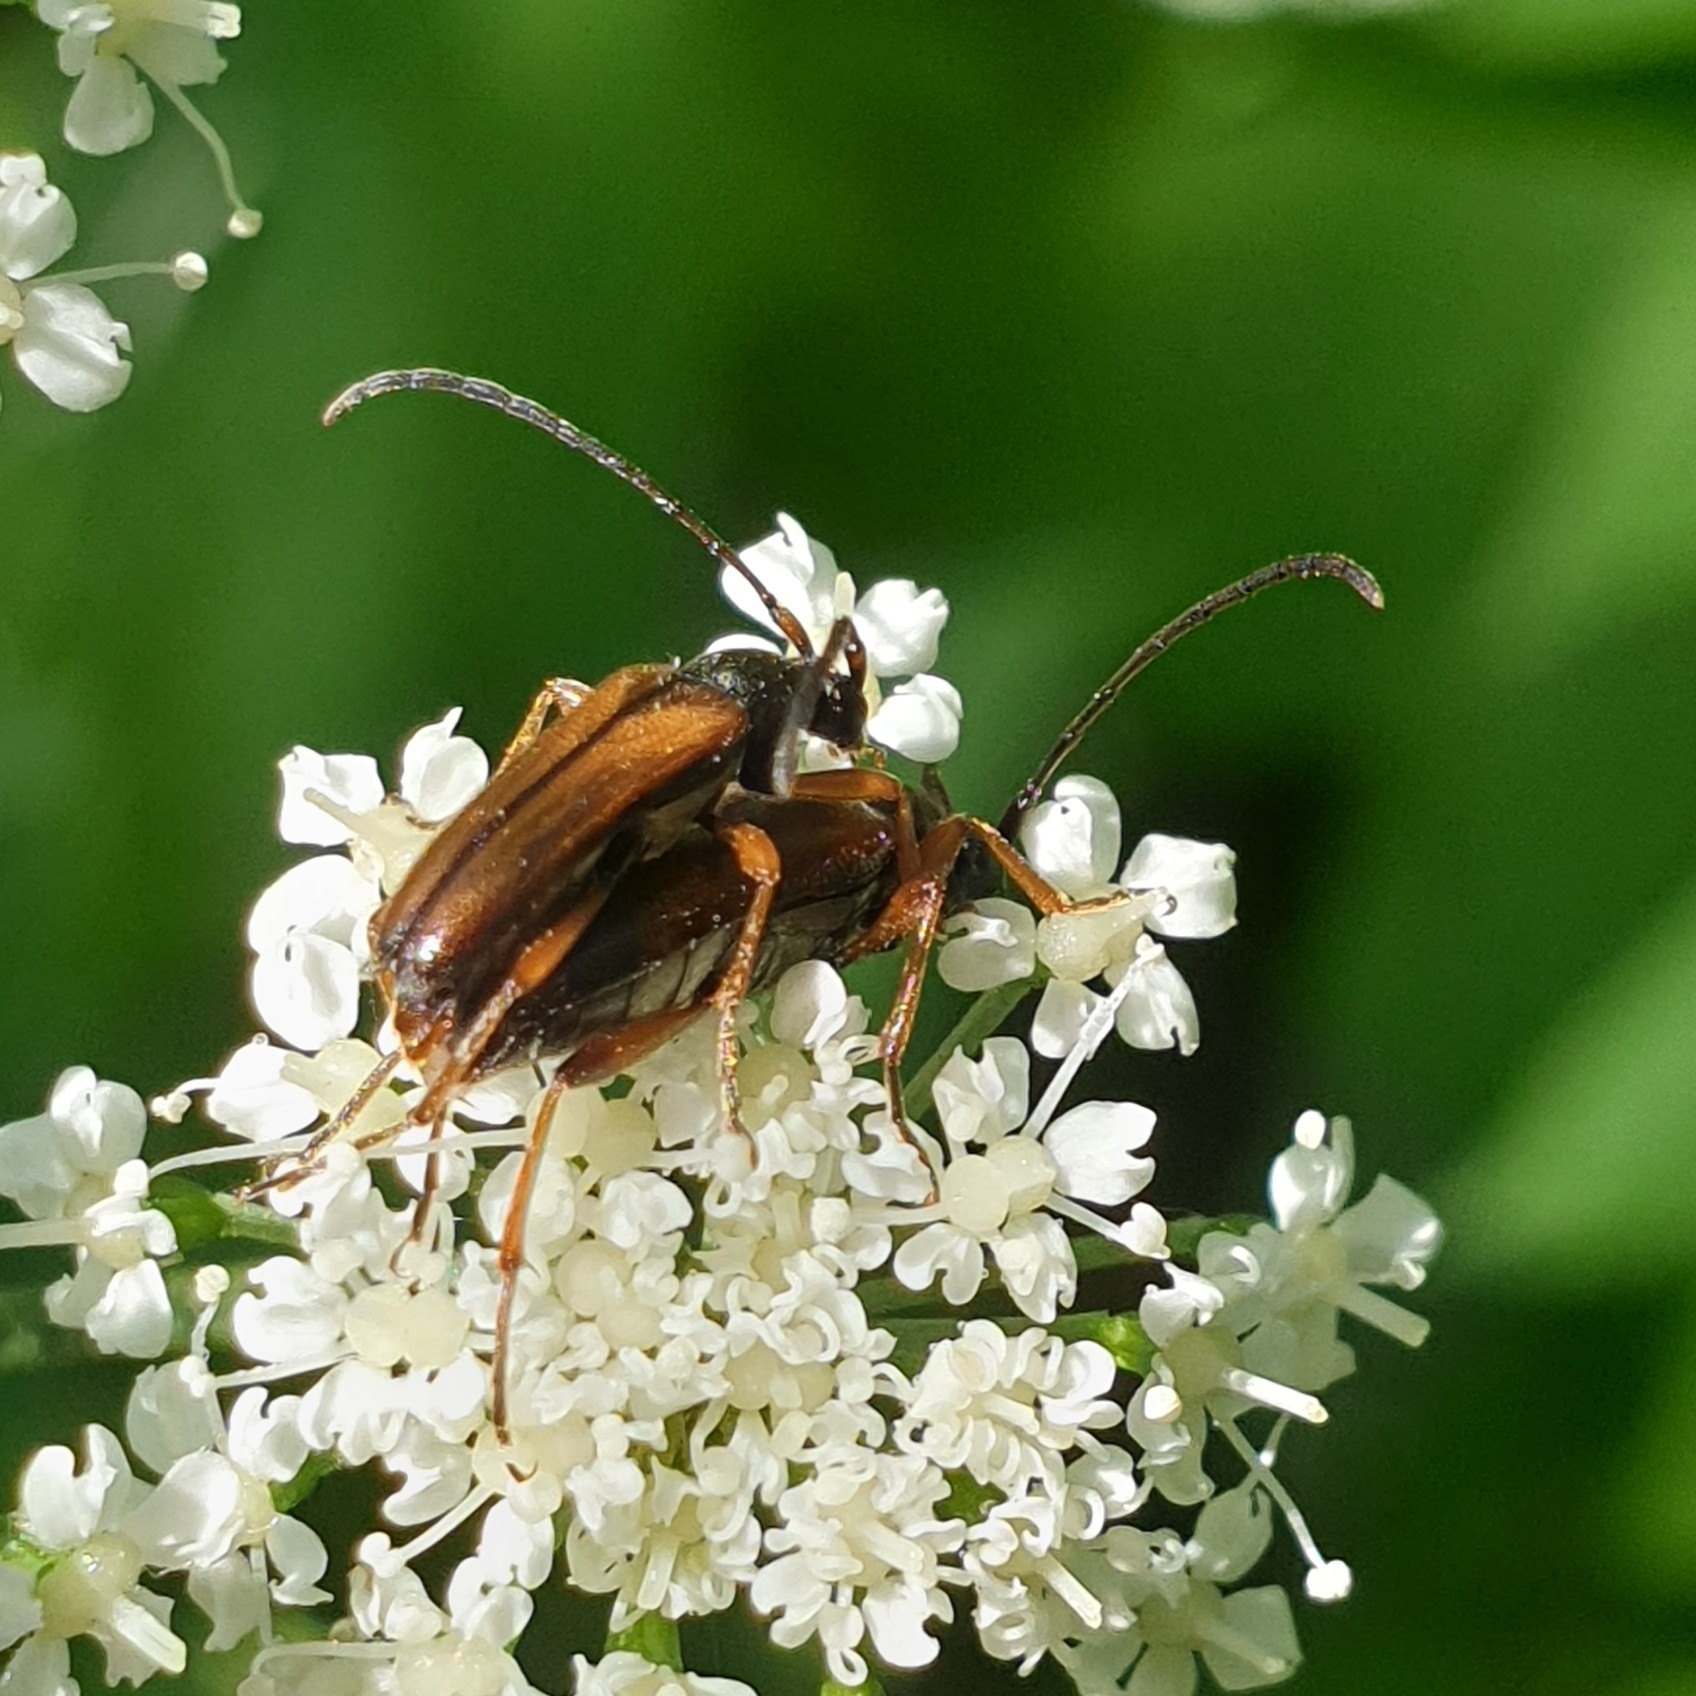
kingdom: Animalia
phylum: Arthropoda
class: Insecta
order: Coleoptera
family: Cerambycidae
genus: Alosterna
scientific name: Alosterna tabacicolor
